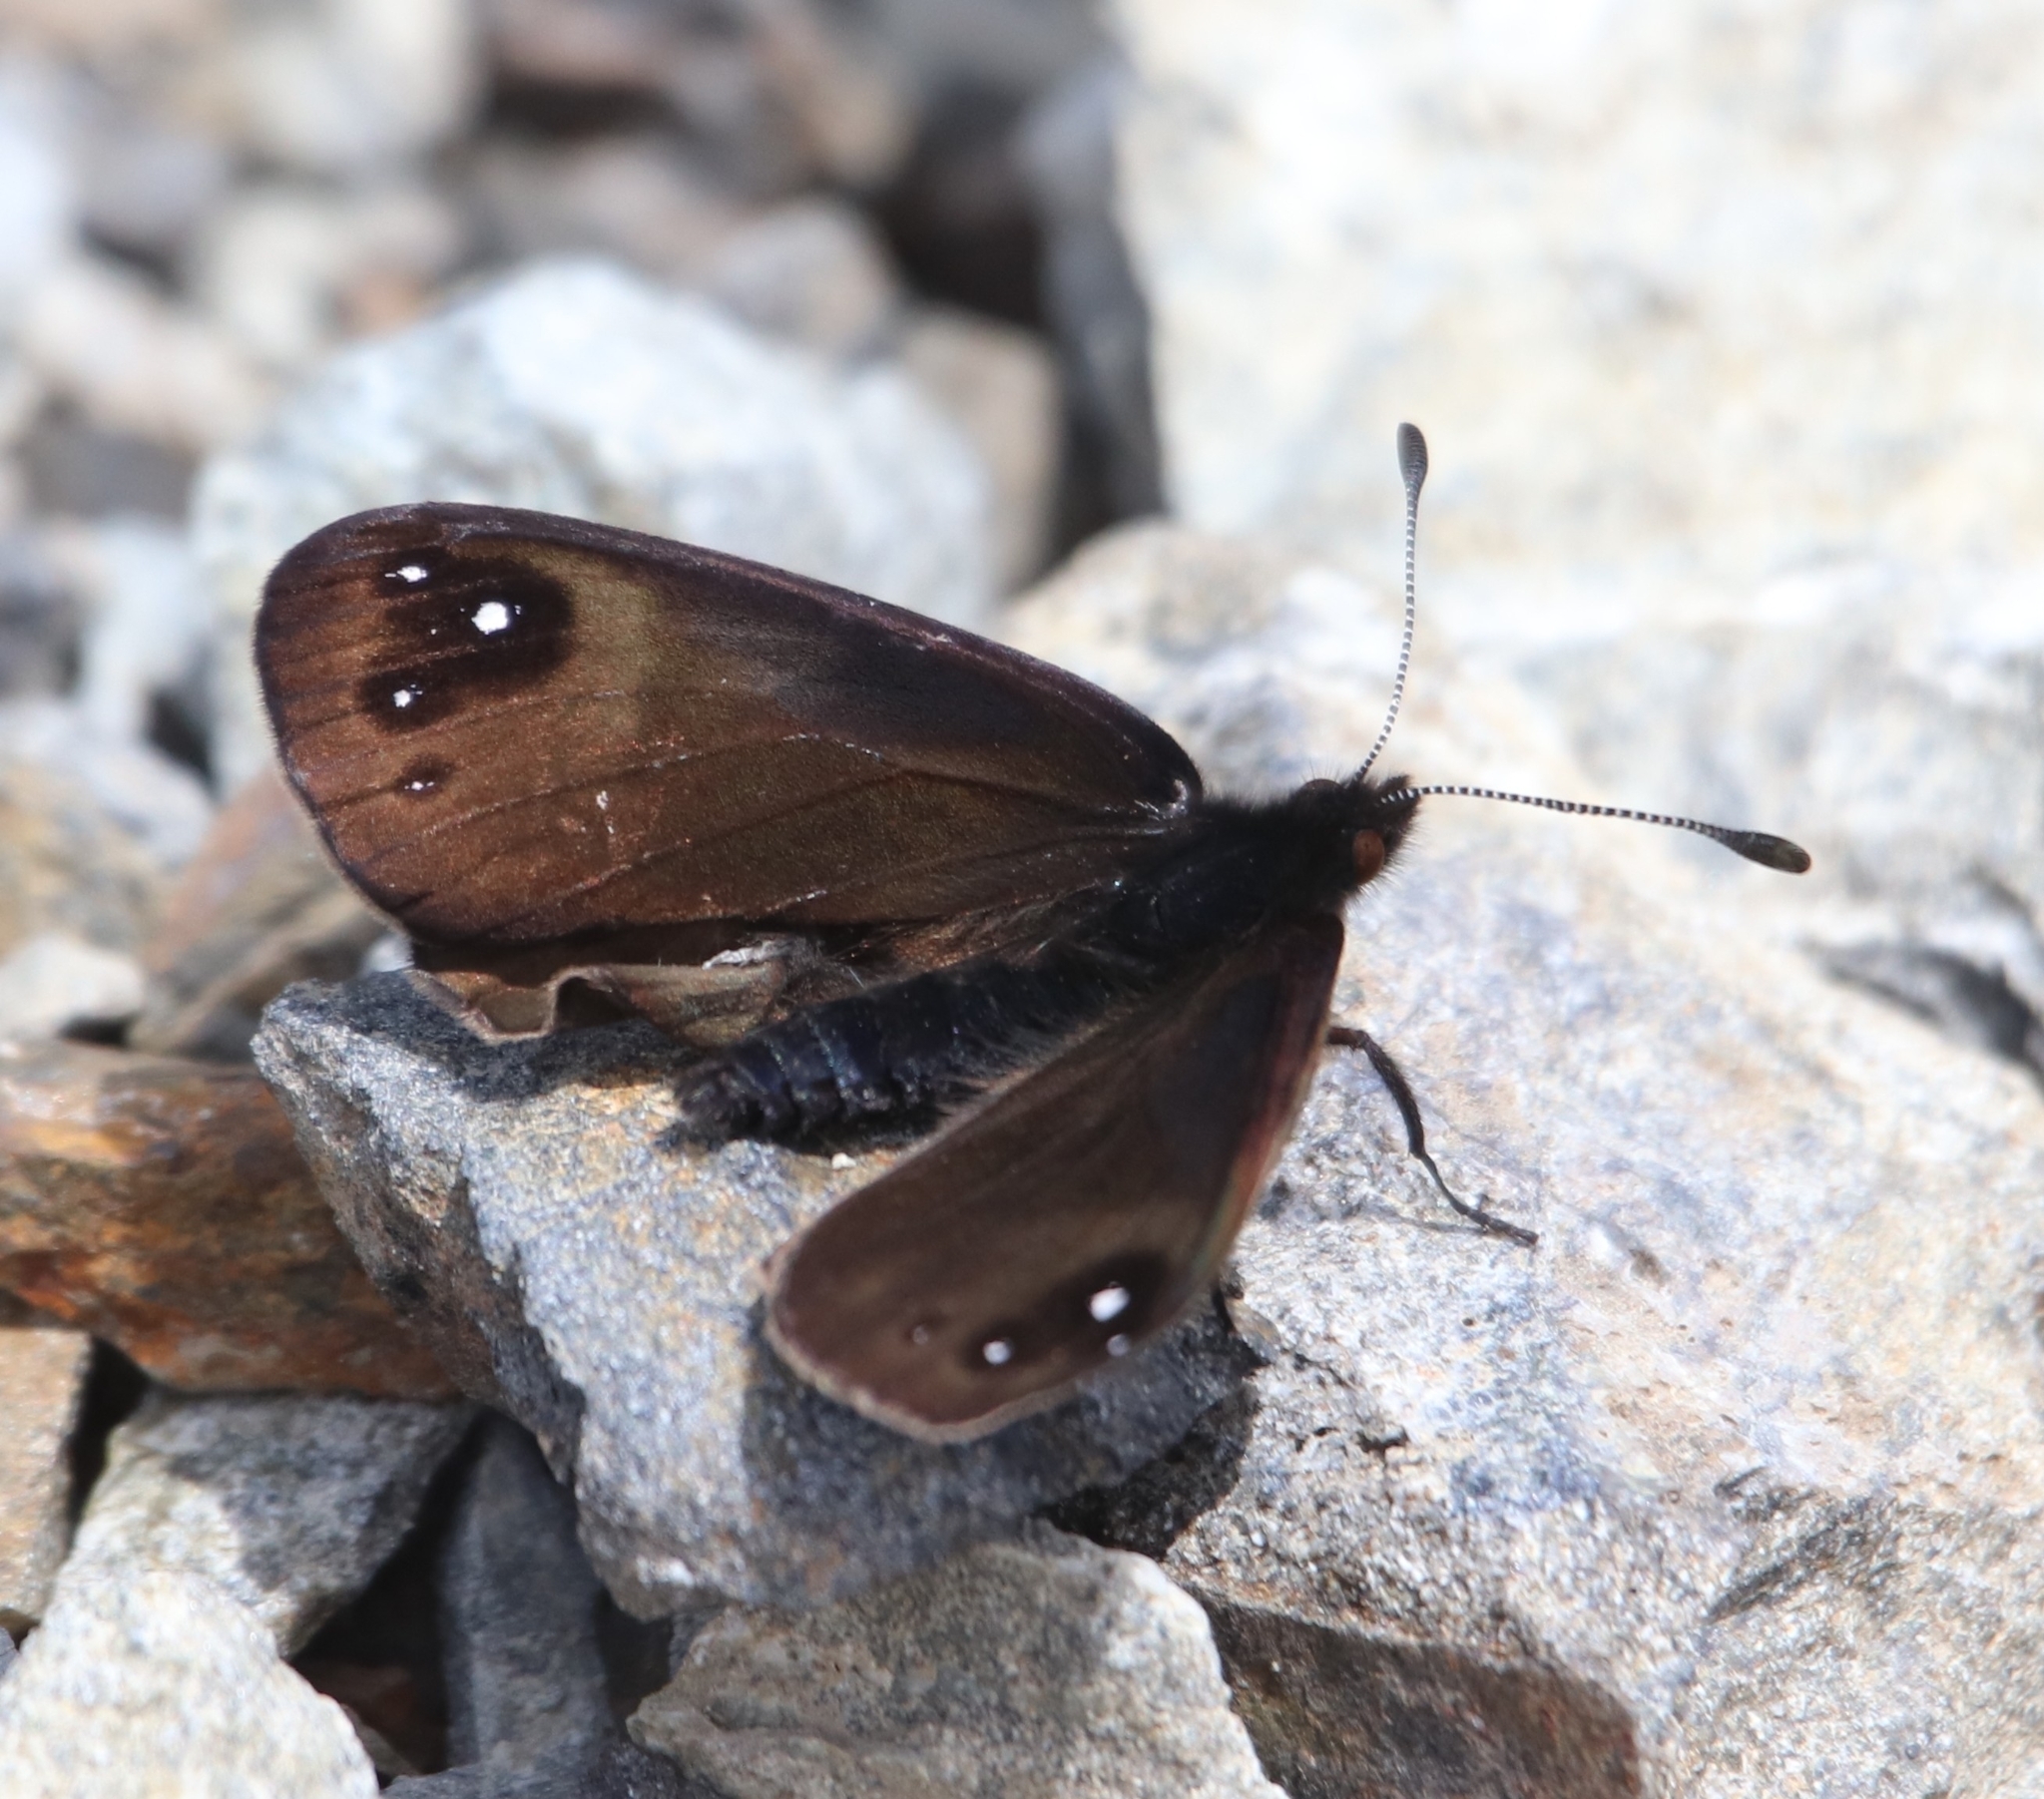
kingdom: Animalia
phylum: Arthropoda
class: Insecta
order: Lepidoptera
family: Nymphalidae
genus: Erebia
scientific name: Erebia Percnodaimon merula
